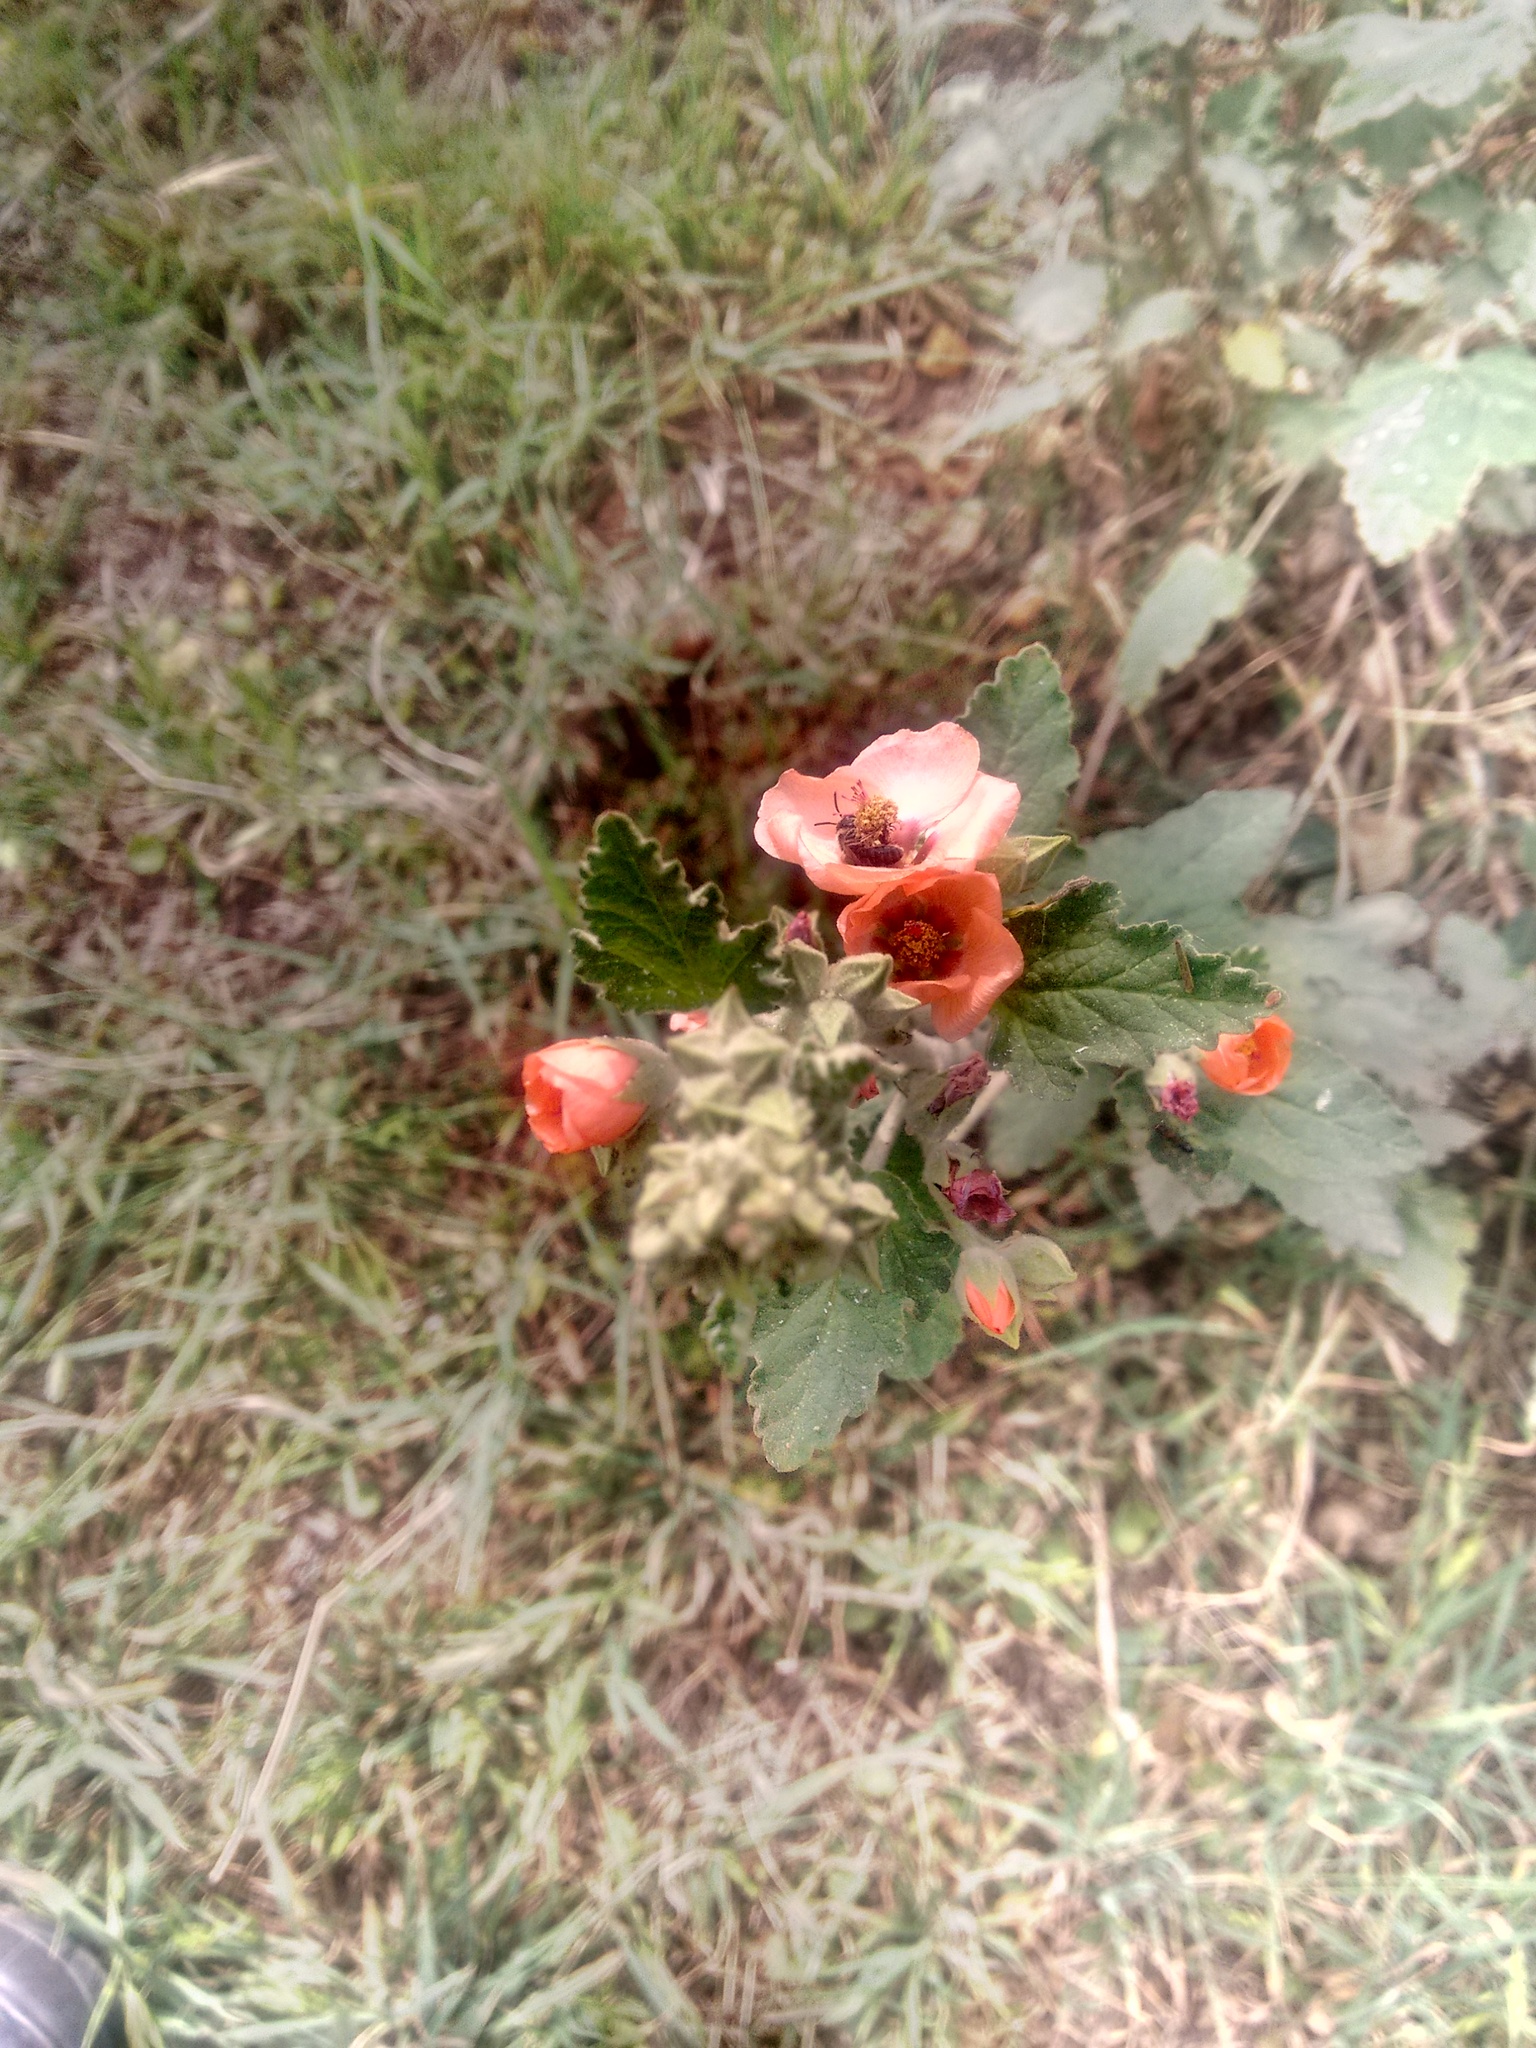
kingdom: Plantae
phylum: Tracheophyta
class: Magnoliopsida
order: Malvales
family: Malvaceae
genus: Sphaeralcea
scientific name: Sphaeralcea bonariensis
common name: Latin globemallow
